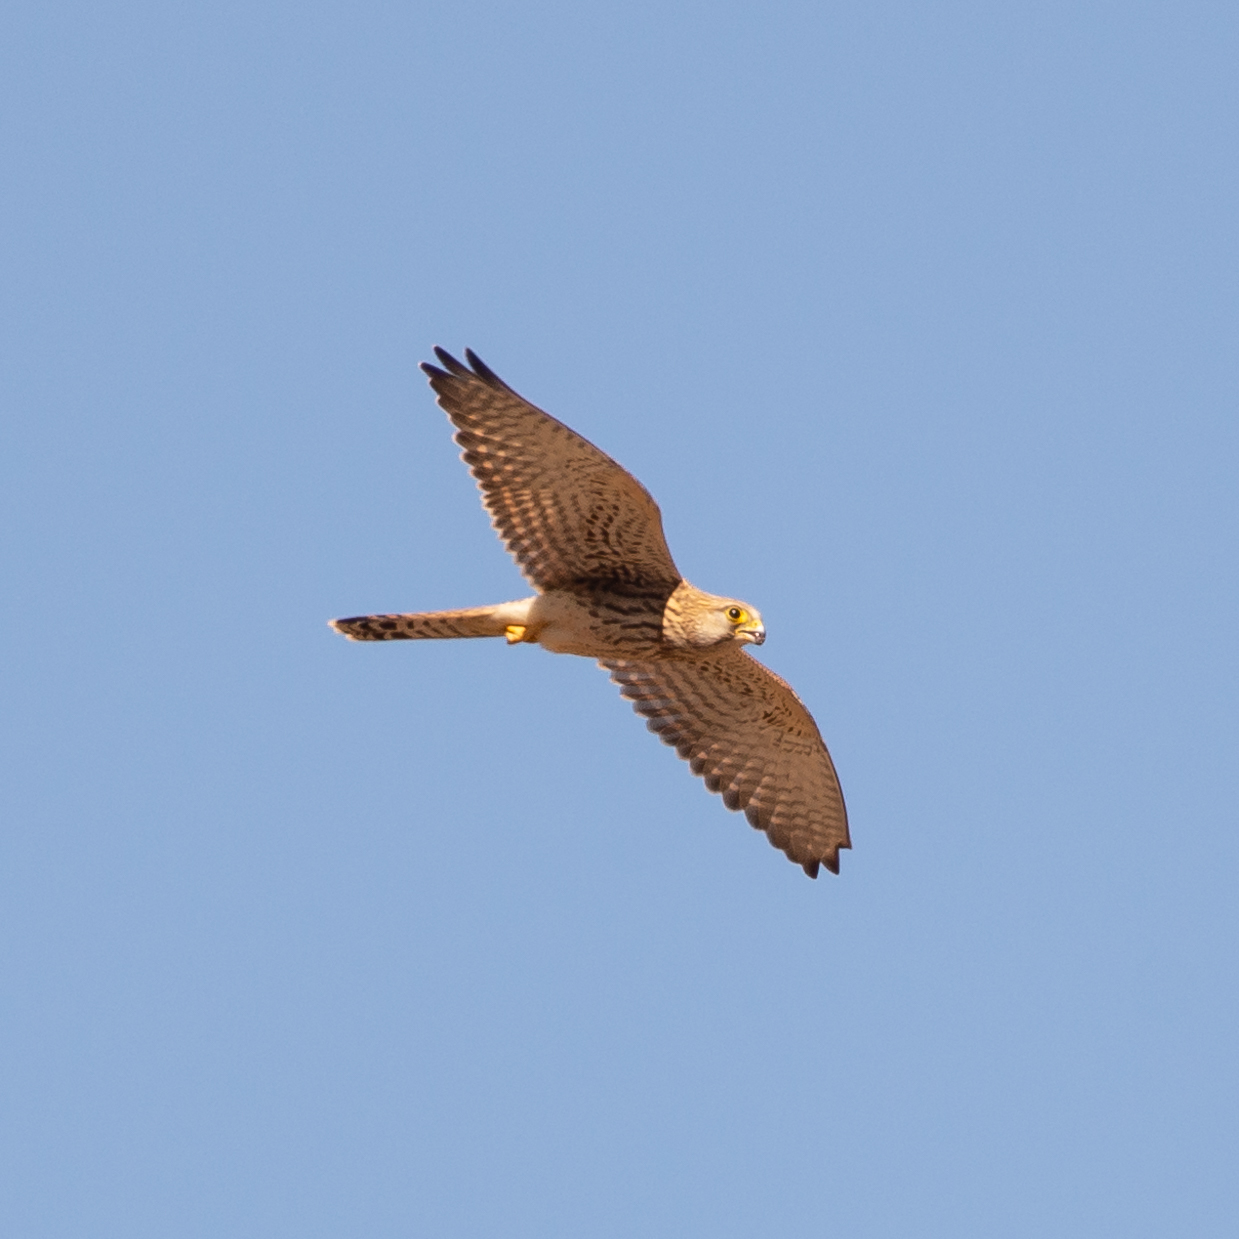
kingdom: Animalia
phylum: Chordata
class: Aves
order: Falconiformes
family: Falconidae
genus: Falco
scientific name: Falco tinnunculus
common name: Common kestrel
